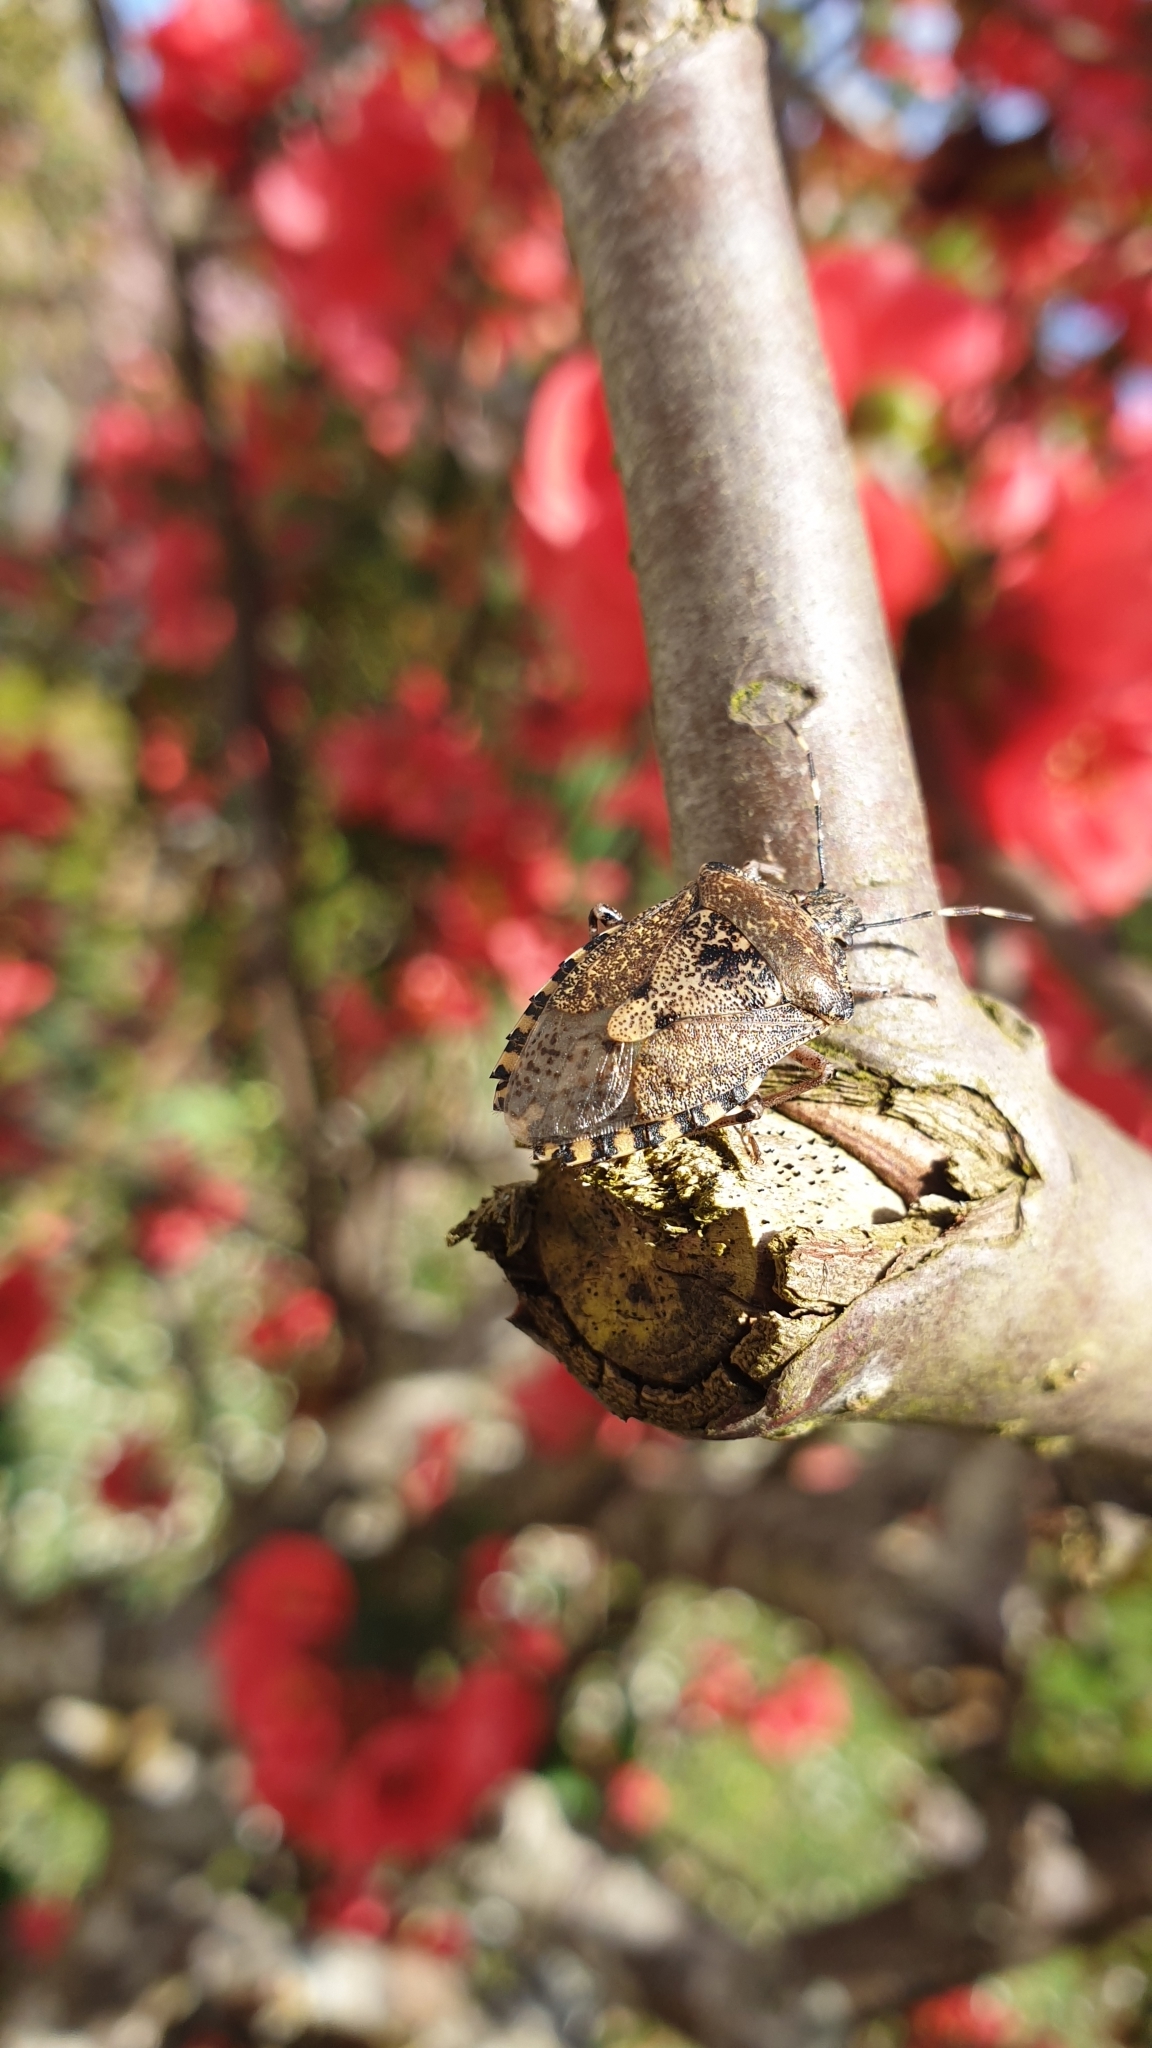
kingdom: Animalia
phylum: Arthropoda
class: Insecta
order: Hemiptera
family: Pentatomidae
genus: Rhaphigaster
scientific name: Rhaphigaster nebulosa
